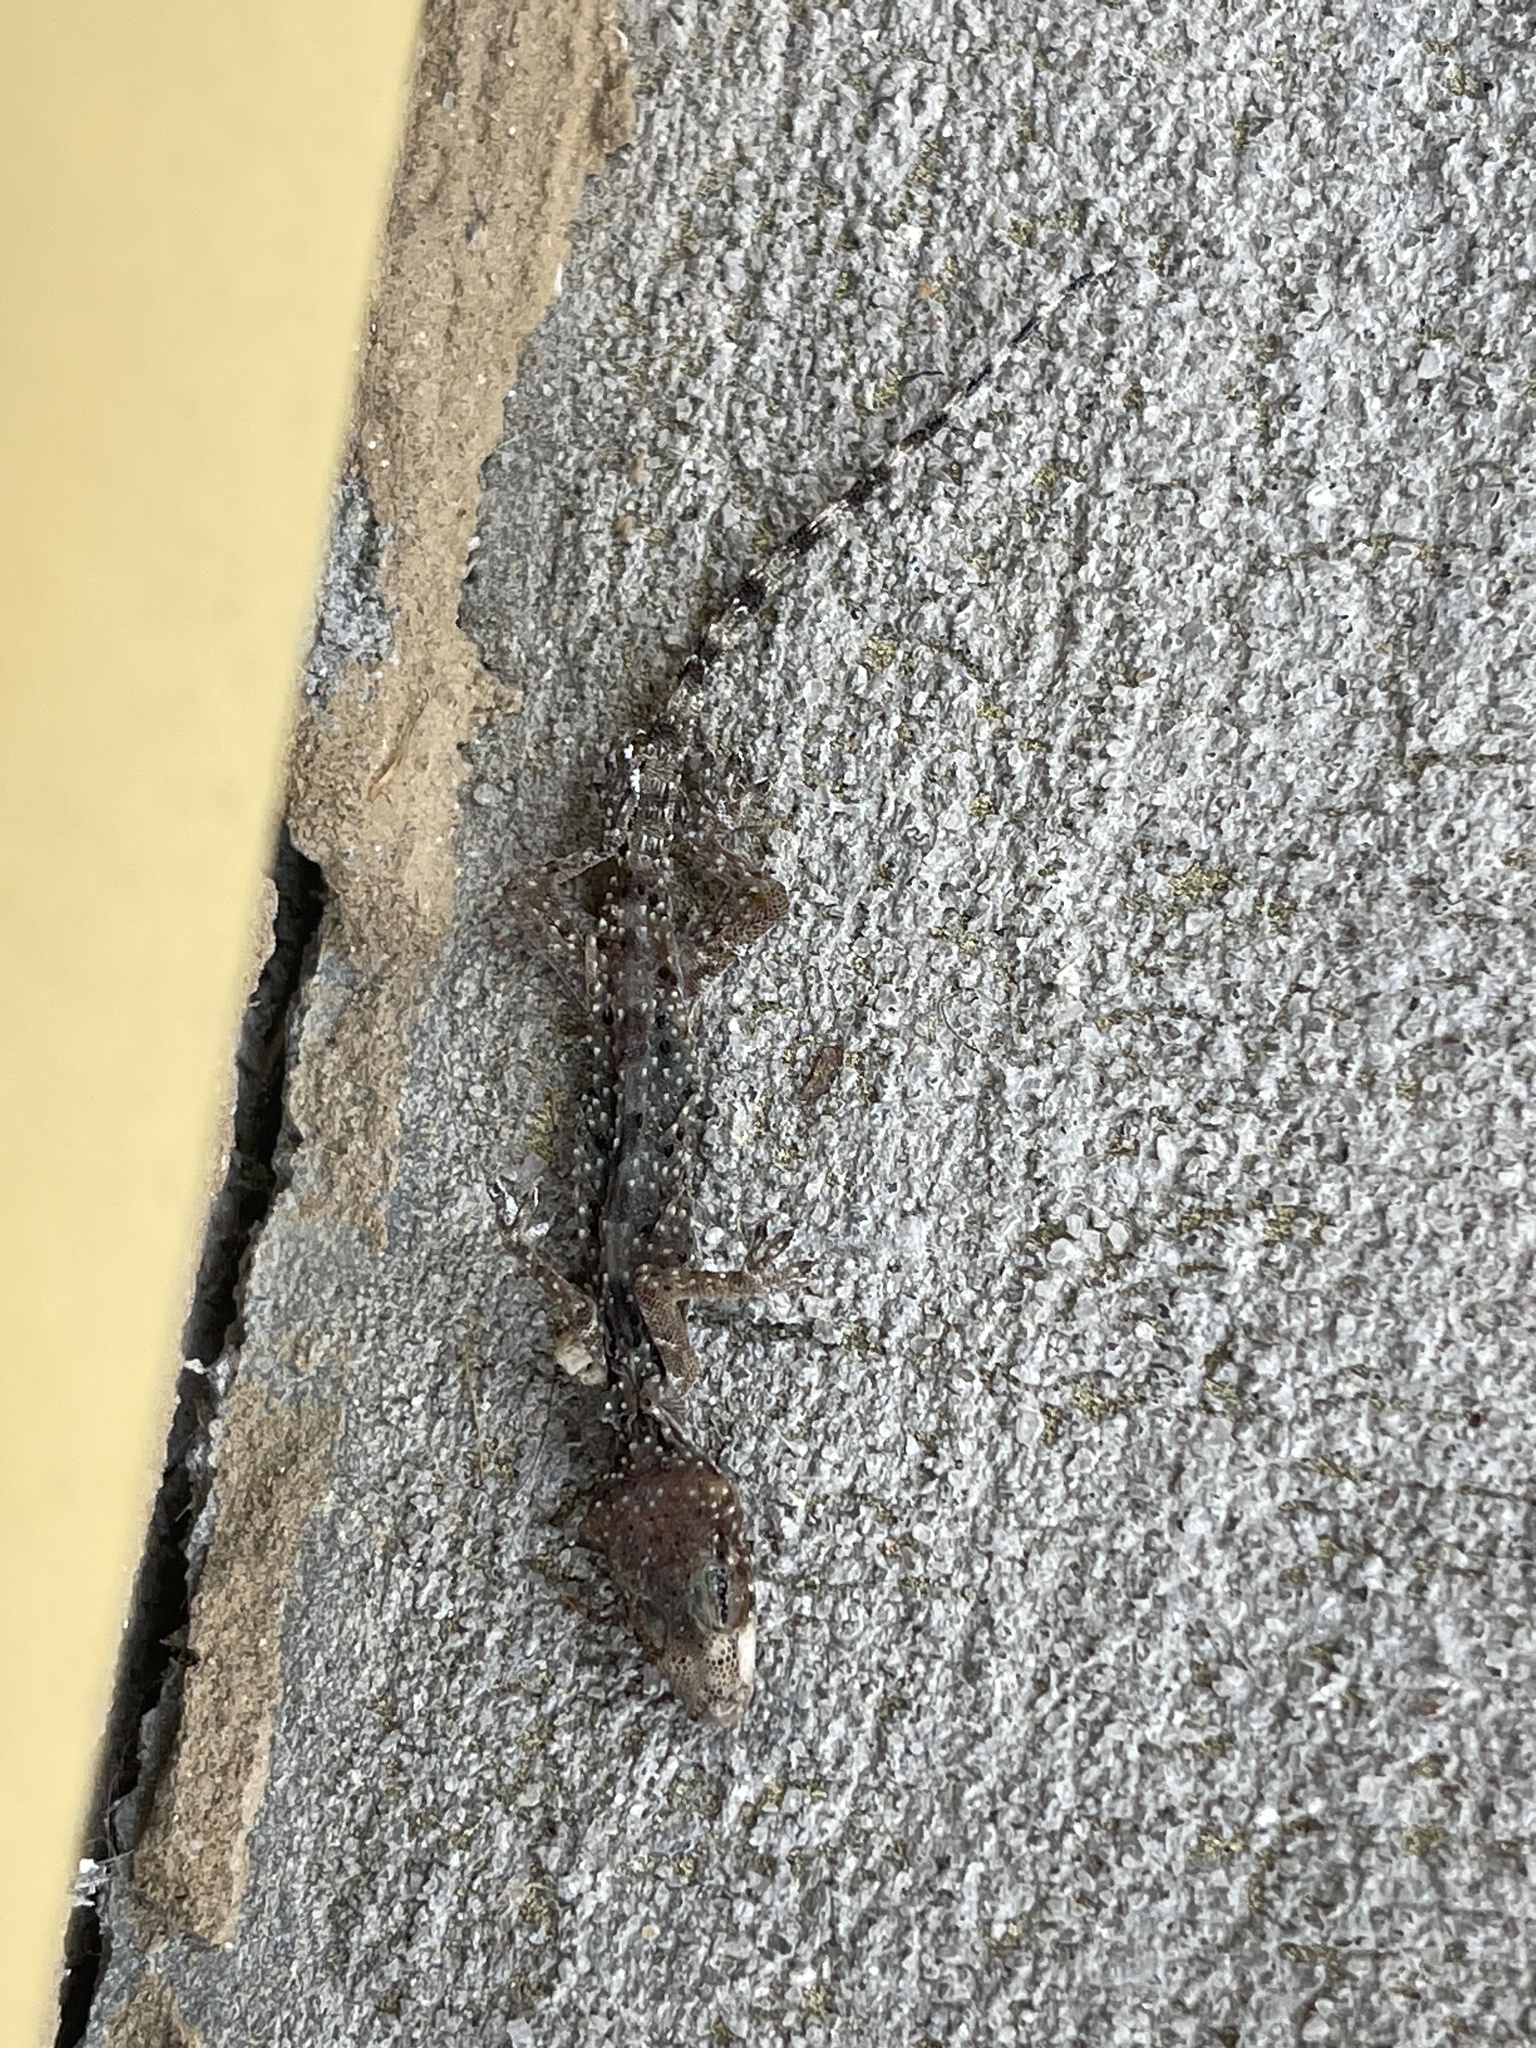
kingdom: Animalia
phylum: Chordata
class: Squamata
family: Gekkonidae
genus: Hemidactylus
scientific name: Hemidactylus turcicus
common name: Turkish gecko
